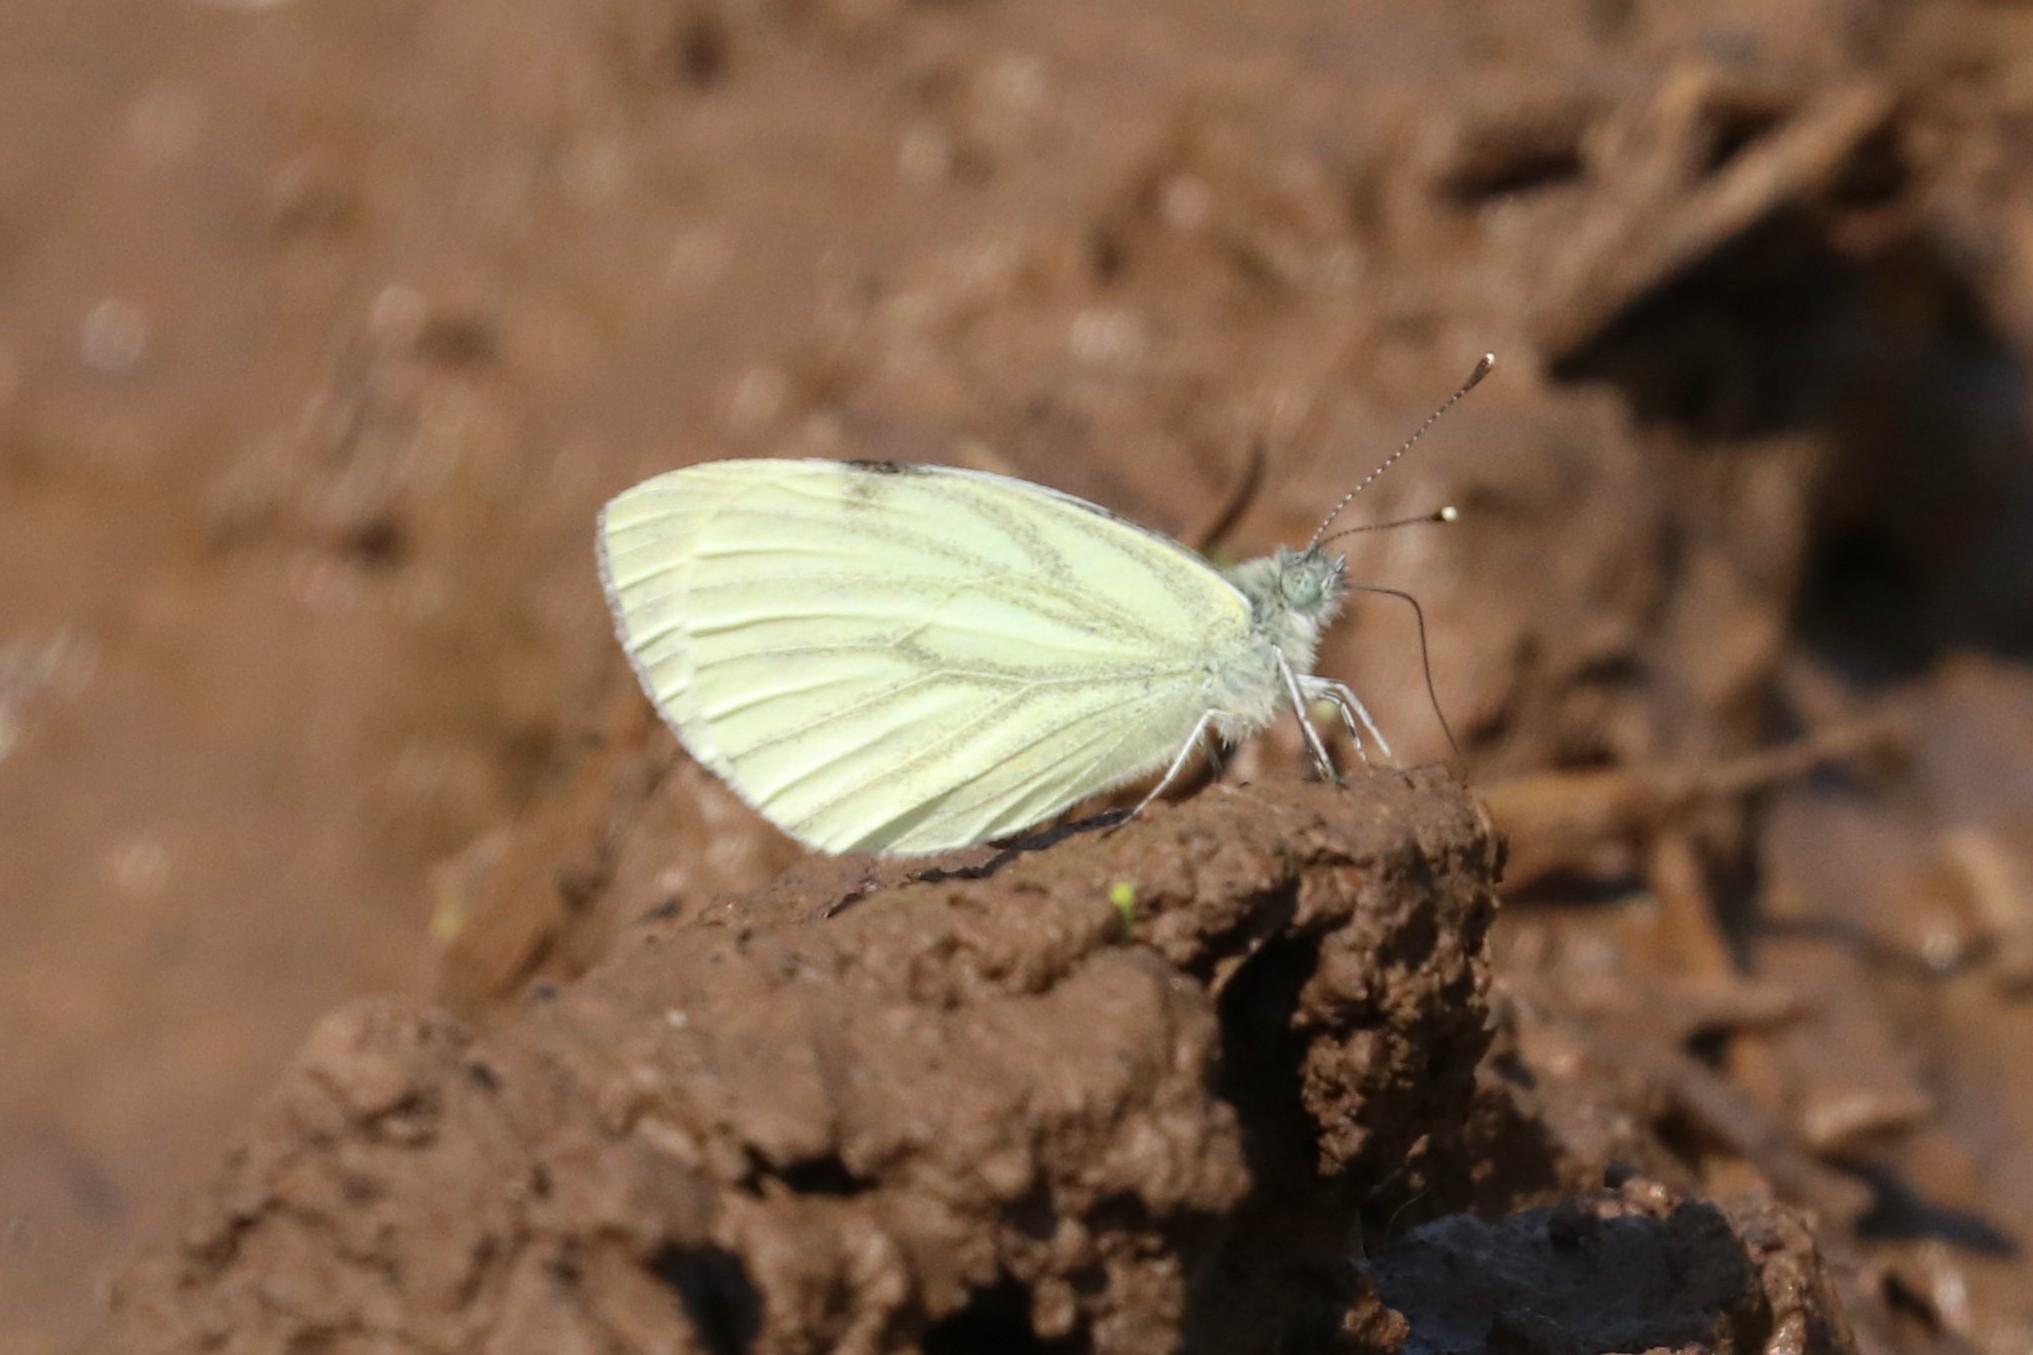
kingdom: Animalia
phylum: Arthropoda
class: Insecta
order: Lepidoptera
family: Pieridae
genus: Pieris
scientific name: Pieris napi
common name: Green-veined white
